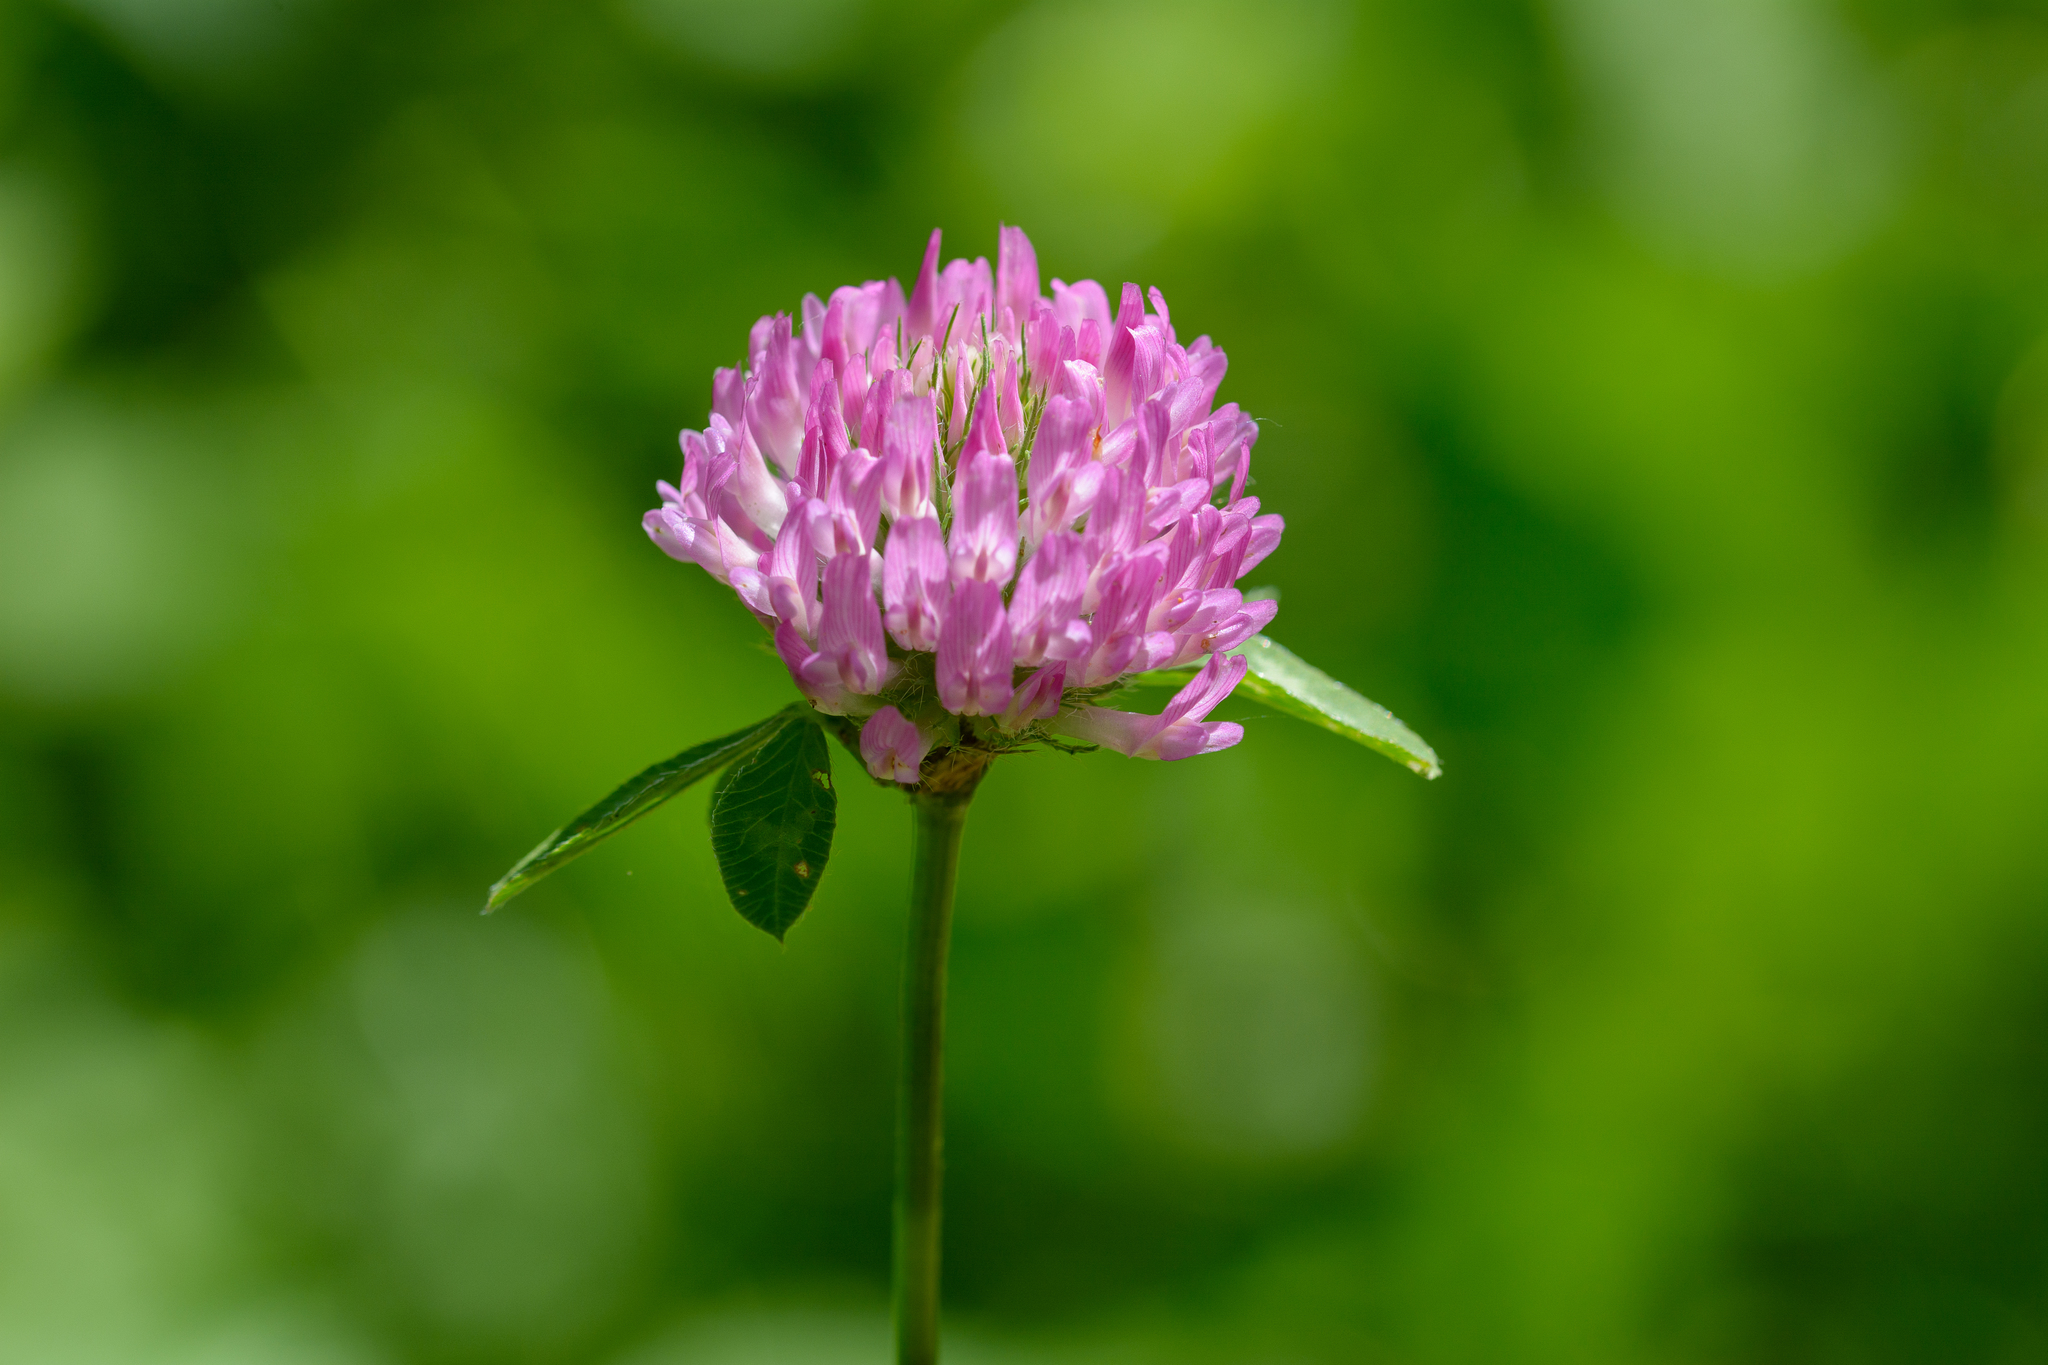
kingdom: Plantae
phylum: Tracheophyta
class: Magnoliopsida
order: Fabales
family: Fabaceae
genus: Trifolium
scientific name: Trifolium pratense
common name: Red clover
